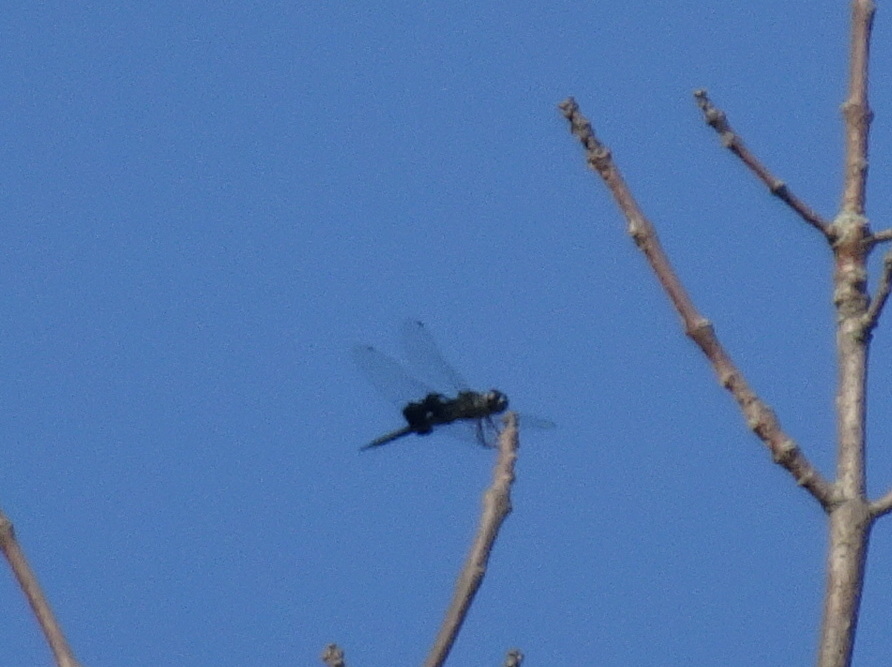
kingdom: Animalia
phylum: Arthropoda
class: Insecta
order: Odonata
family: Libellulidae
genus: Tramea
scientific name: Tramea lacerata
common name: Black saddlebags
